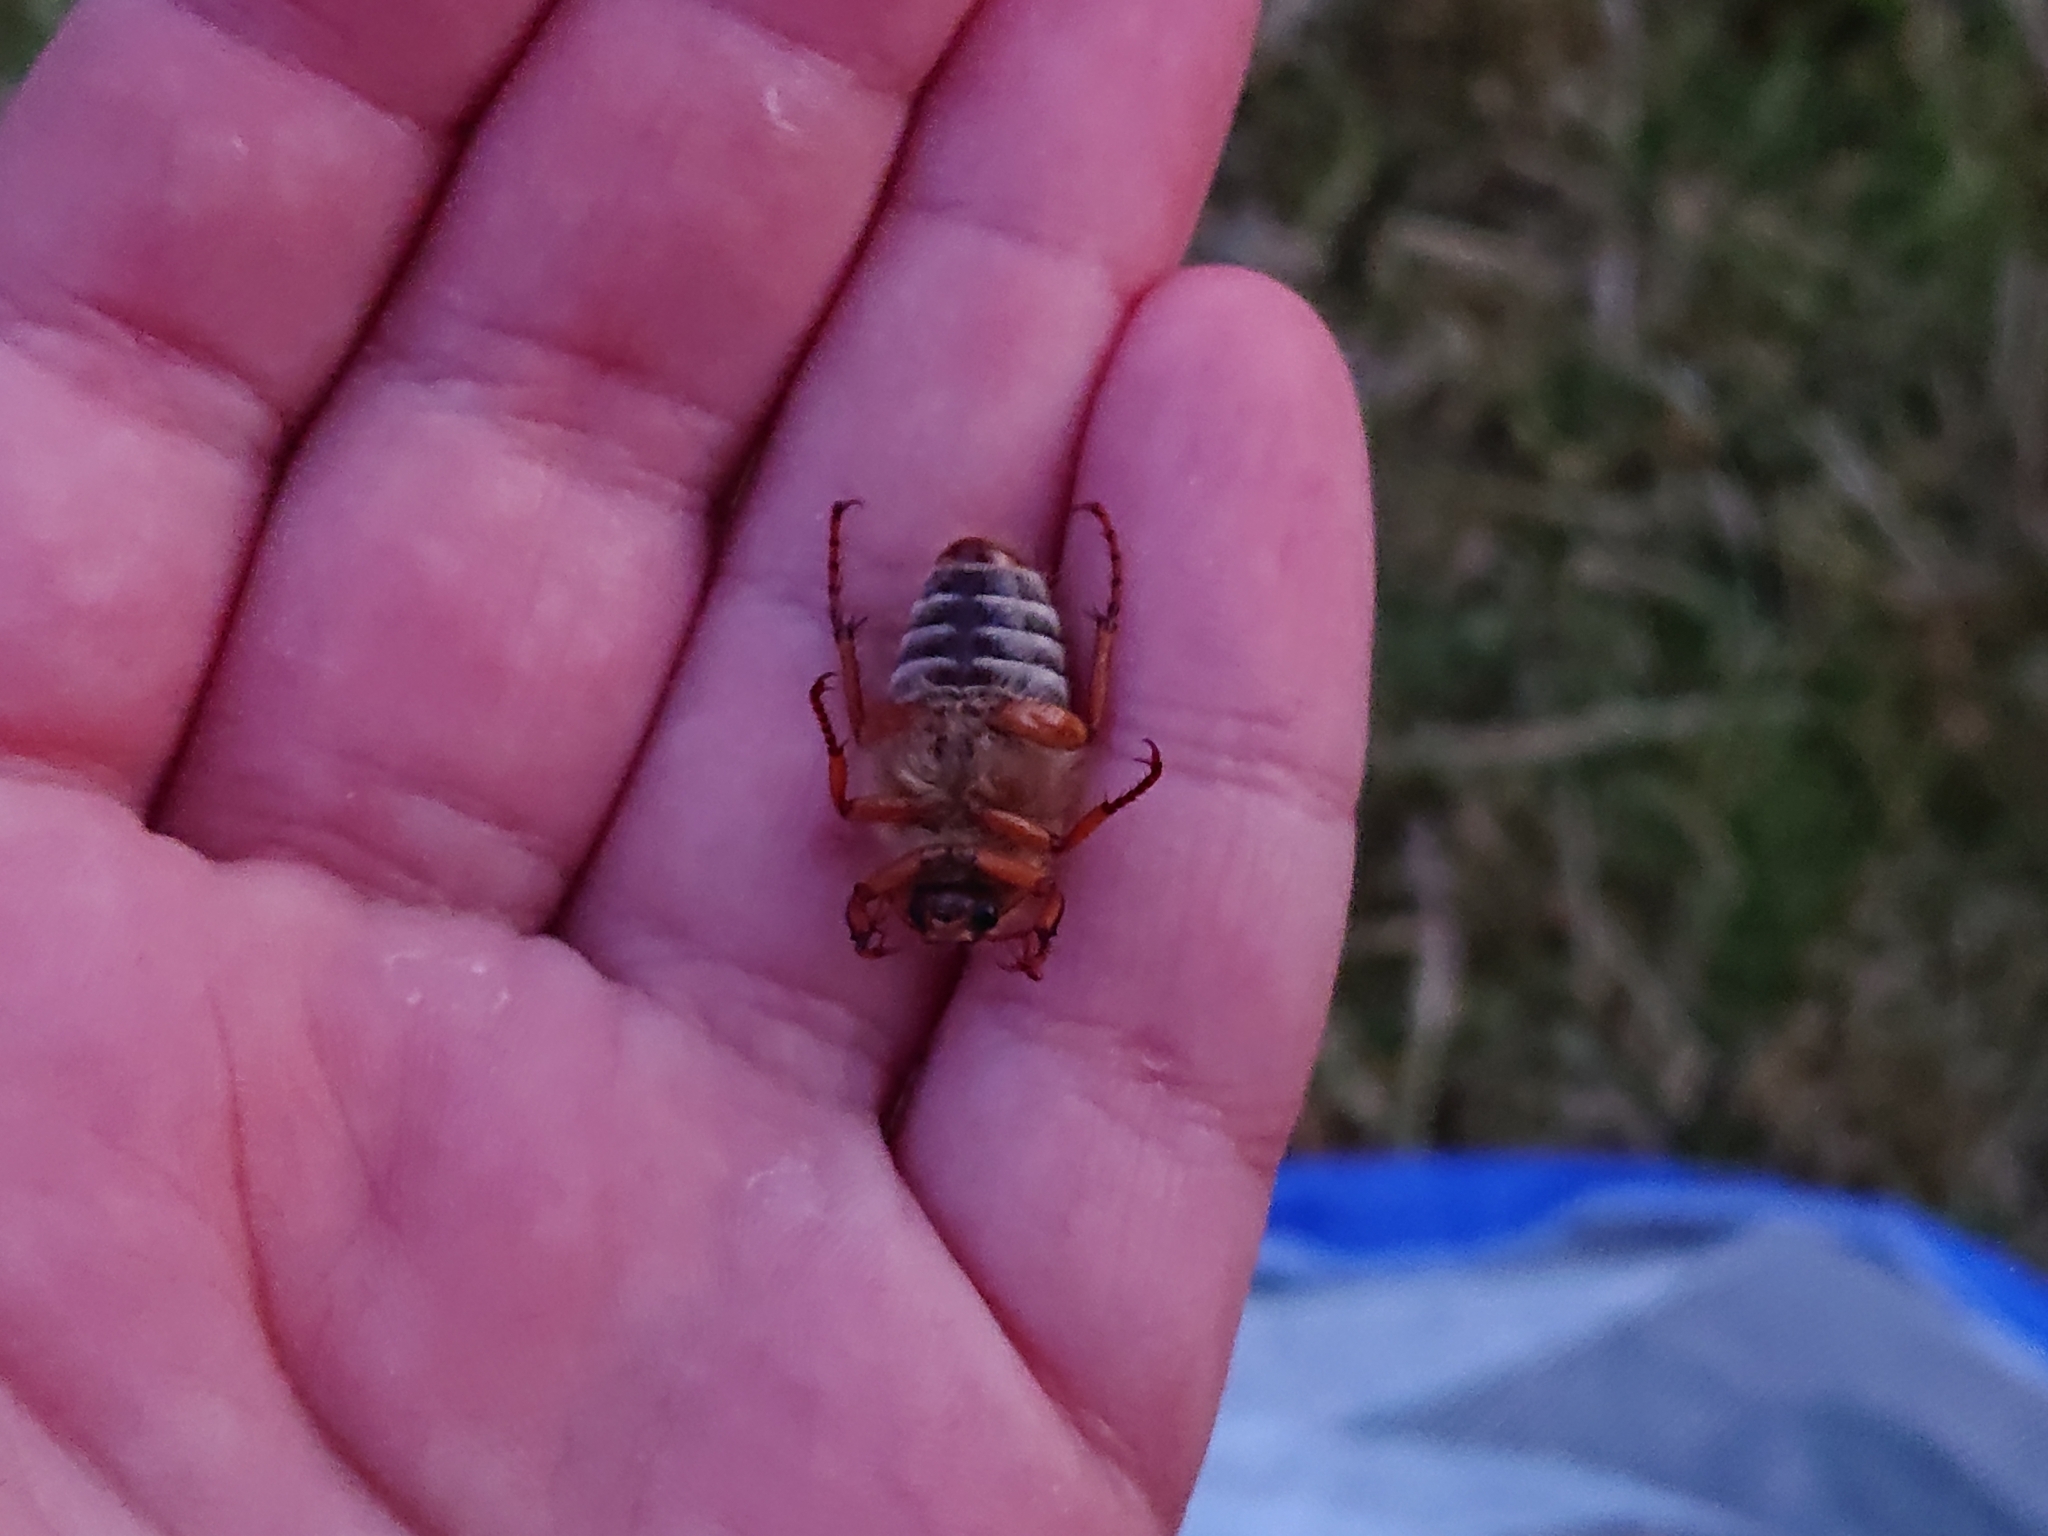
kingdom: Animalia
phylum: Arthropoda
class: Insecta
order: Coleoptera
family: Scarabaeidae
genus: Amphimallon
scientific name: Amphimallon solstitiale
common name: Summer chafer
